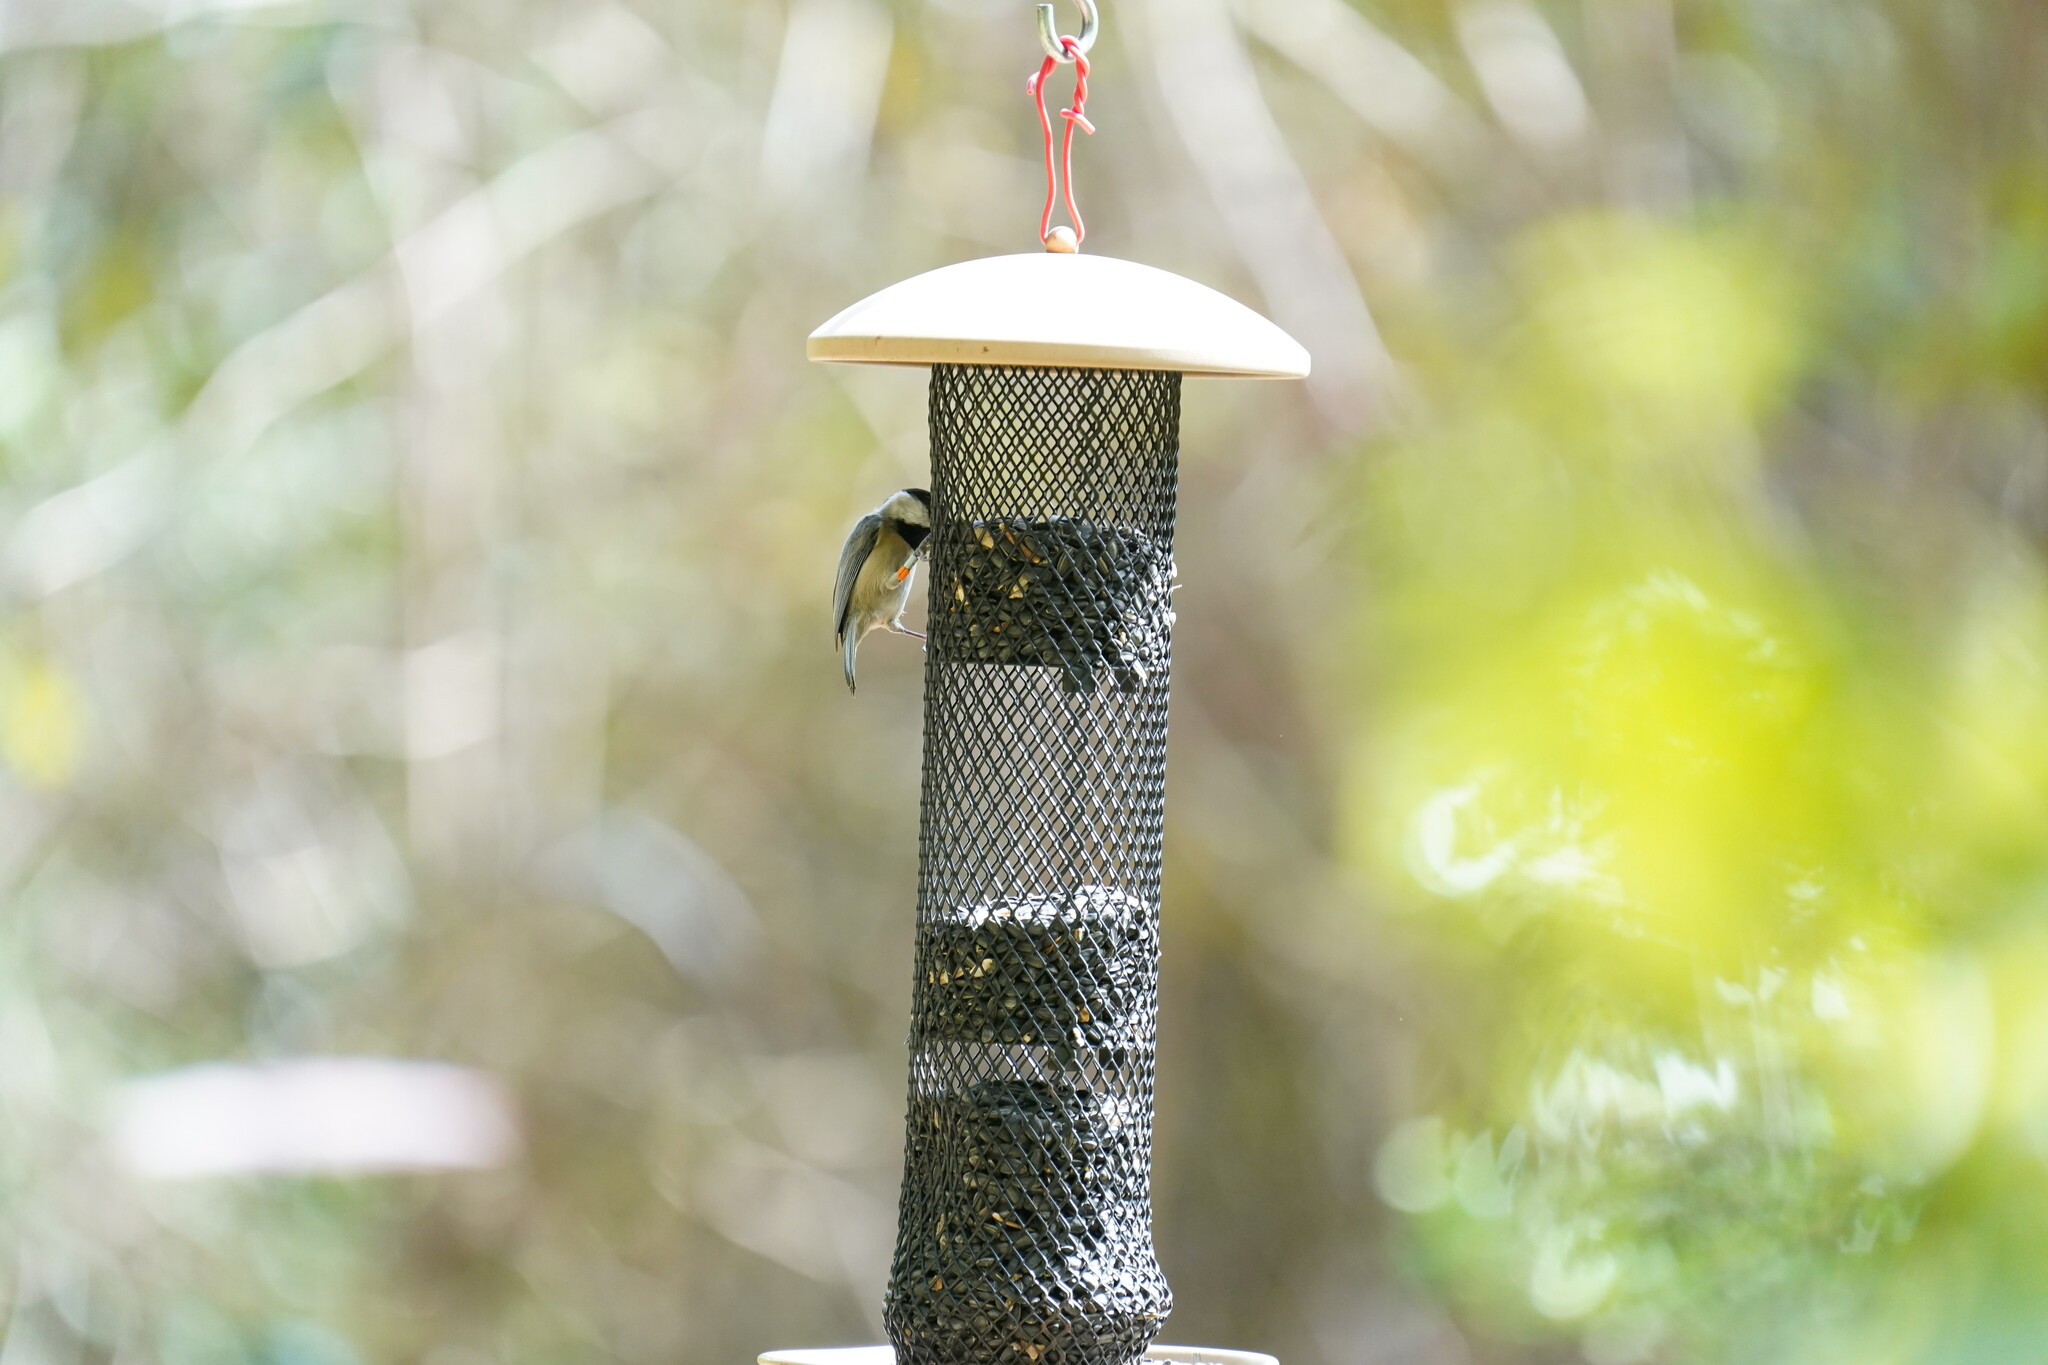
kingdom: Animalia
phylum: Chordata
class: Aves
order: Passeriformes
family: Paridae
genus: Poecile
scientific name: Poecile carolinensis
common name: Carolina chickadee
